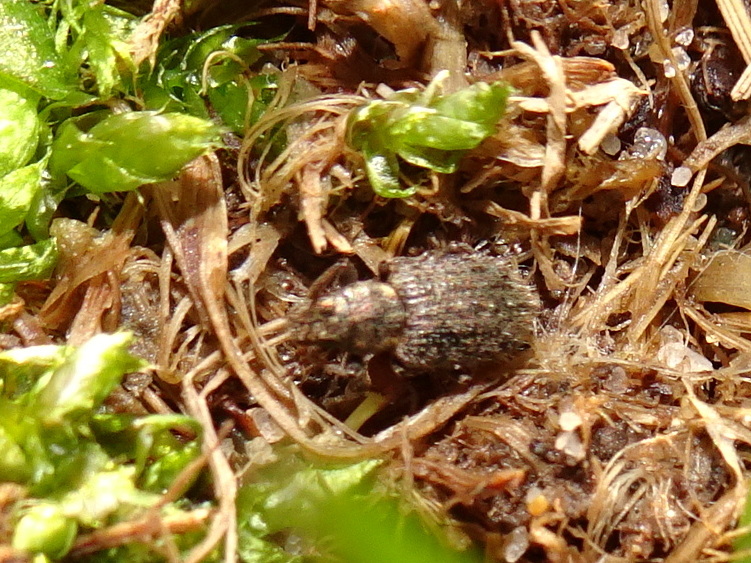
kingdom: Animalia
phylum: Arthropoda
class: Insecta
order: Coleoptera
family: Curculionidae
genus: Sitona
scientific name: Sitona hispidulus
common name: Clover weevil
